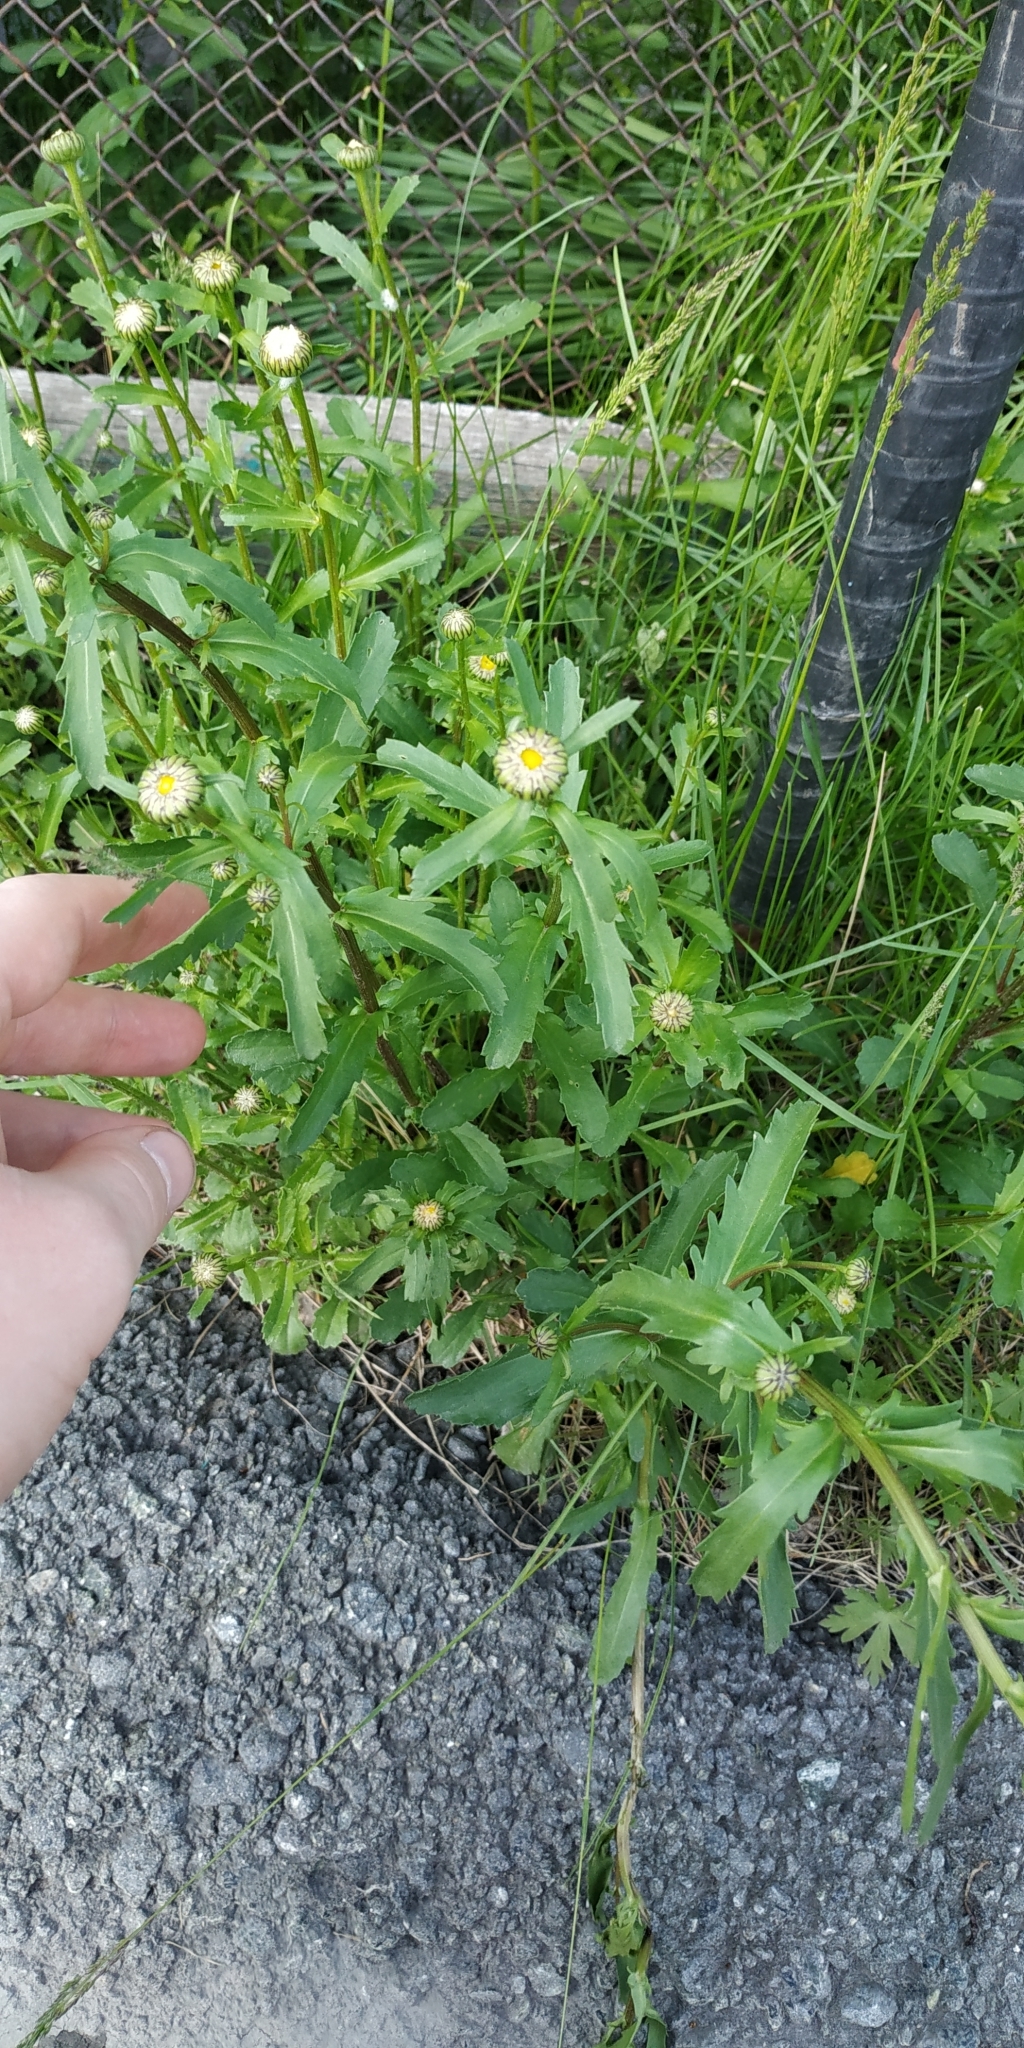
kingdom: Plantae
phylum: Tracheophyta
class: Magnoliopsida
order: Asterales
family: Asteraceae
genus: Leucanthemum
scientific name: Leucanthemum ircutianum
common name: Daisy
